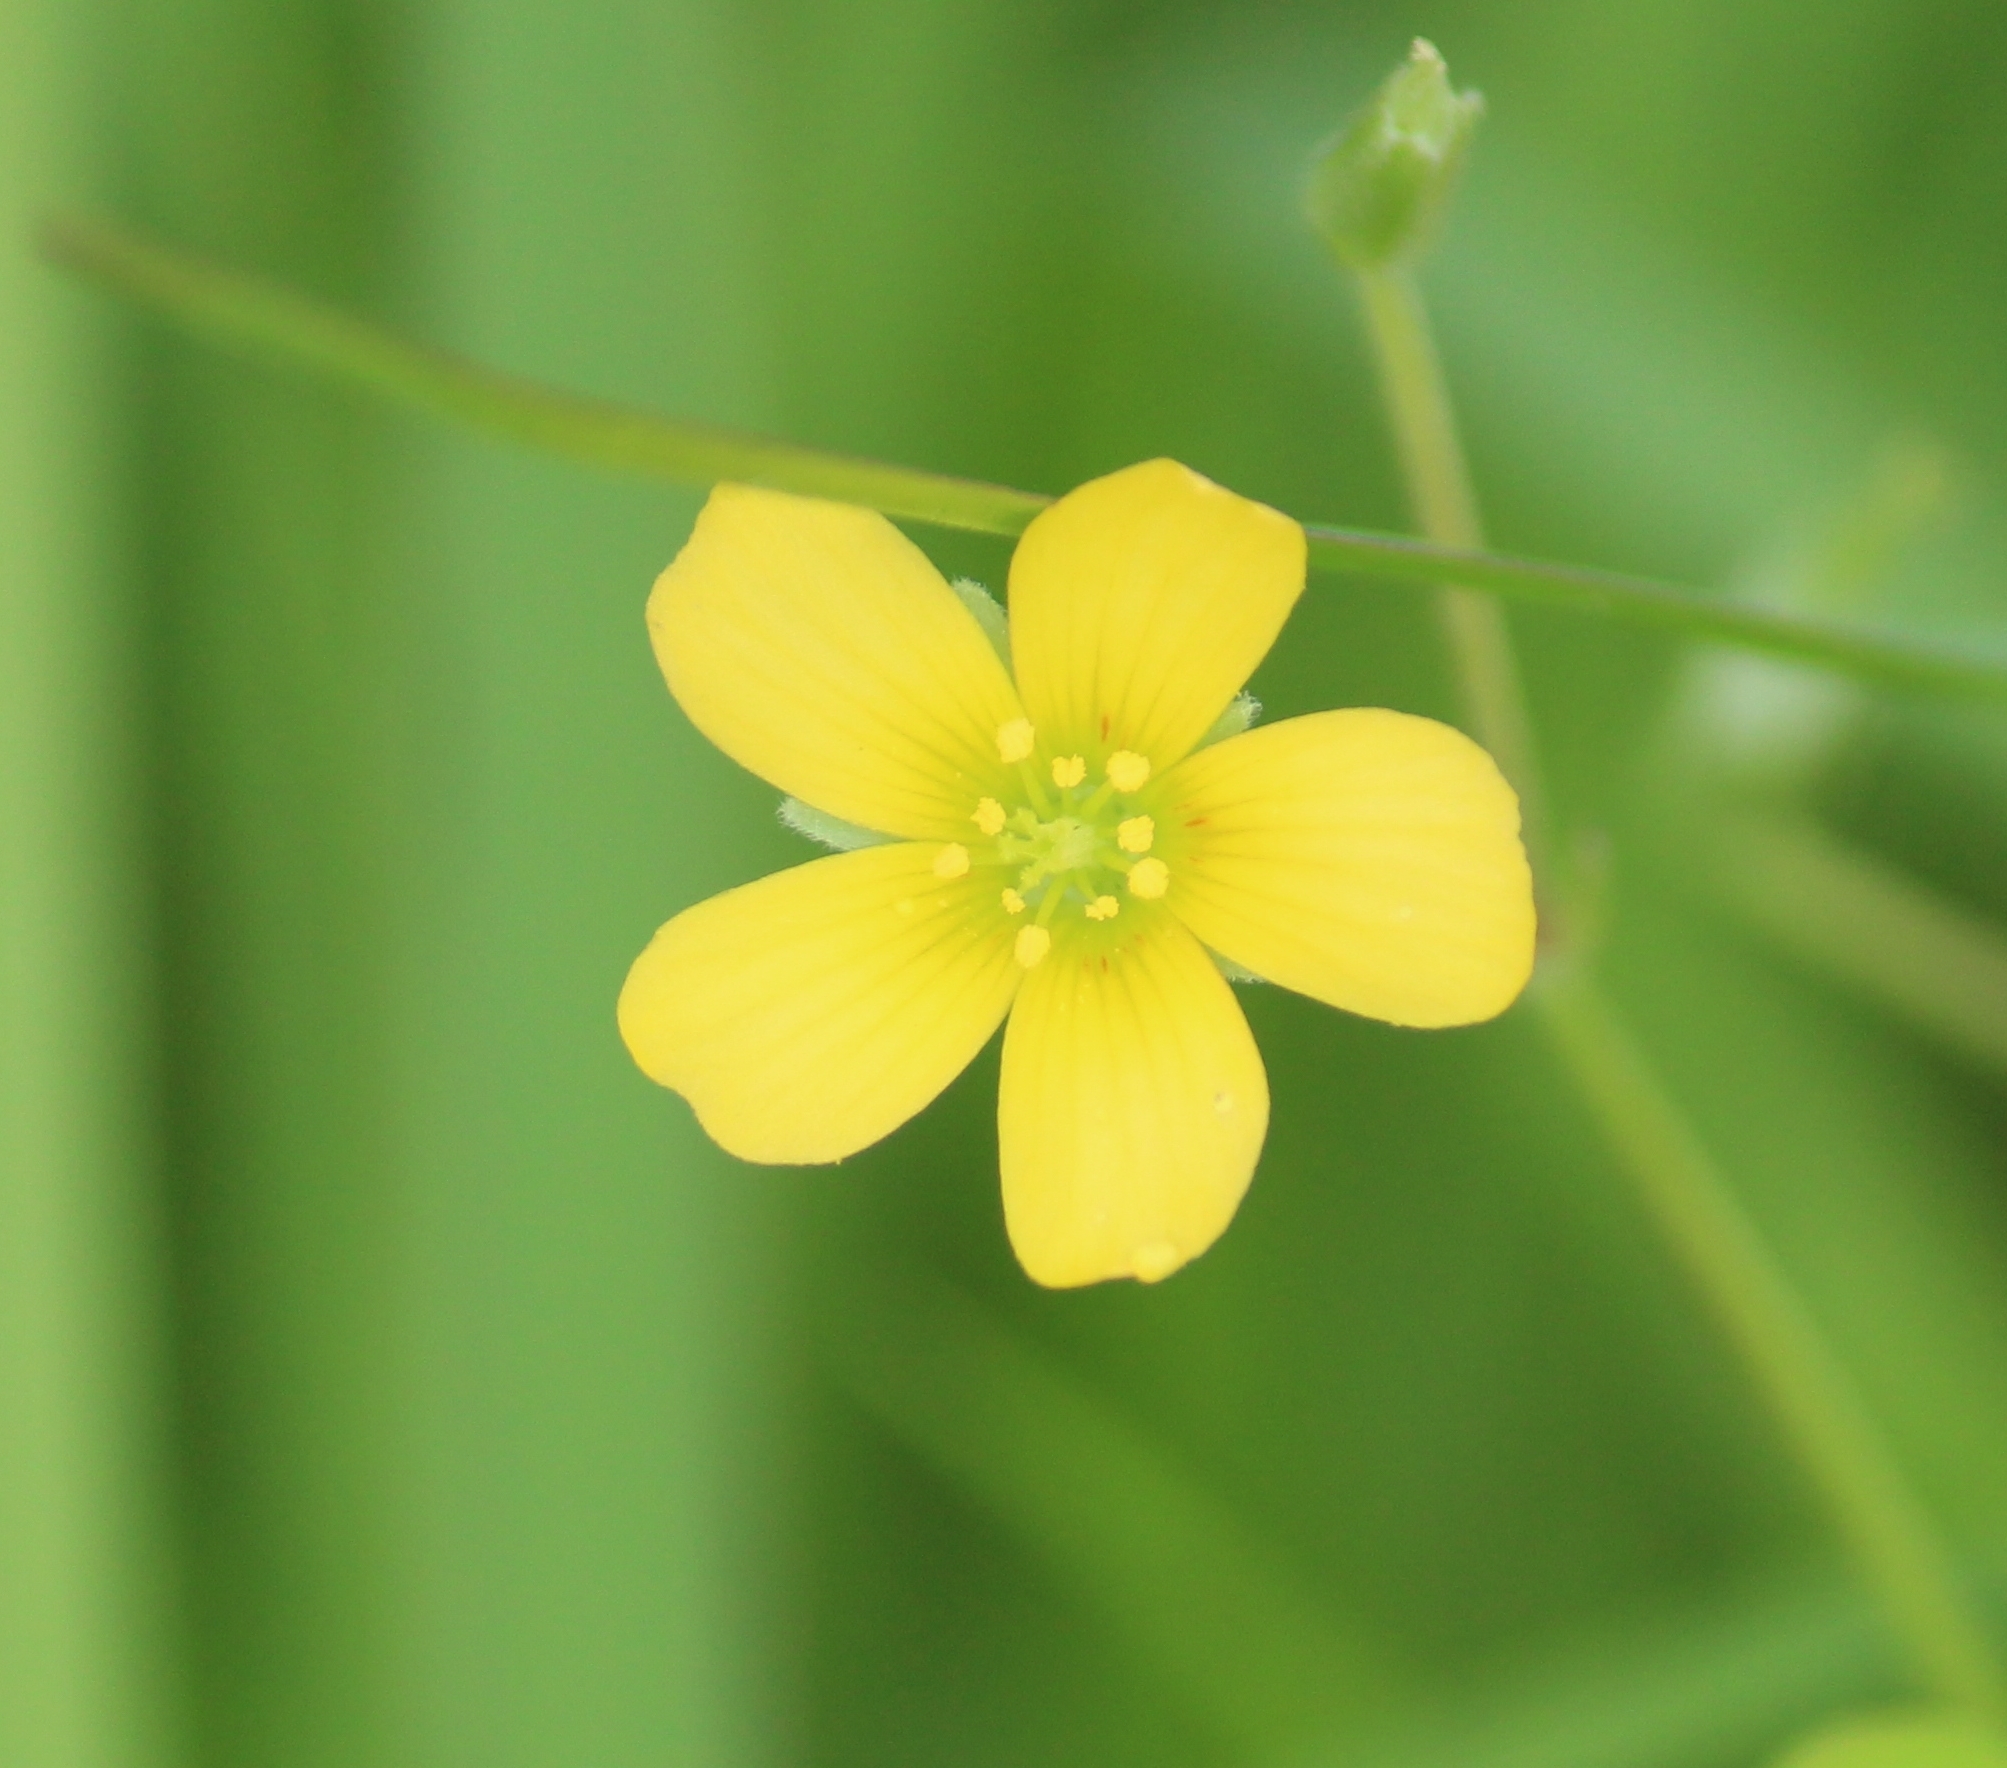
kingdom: Plantae
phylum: Tracheophyta
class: Magnoliopsida
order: Oxalidales
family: Oxalidaceae
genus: Oxalis
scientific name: Oxalis corniculata
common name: Procumbent yellow-sorrel
